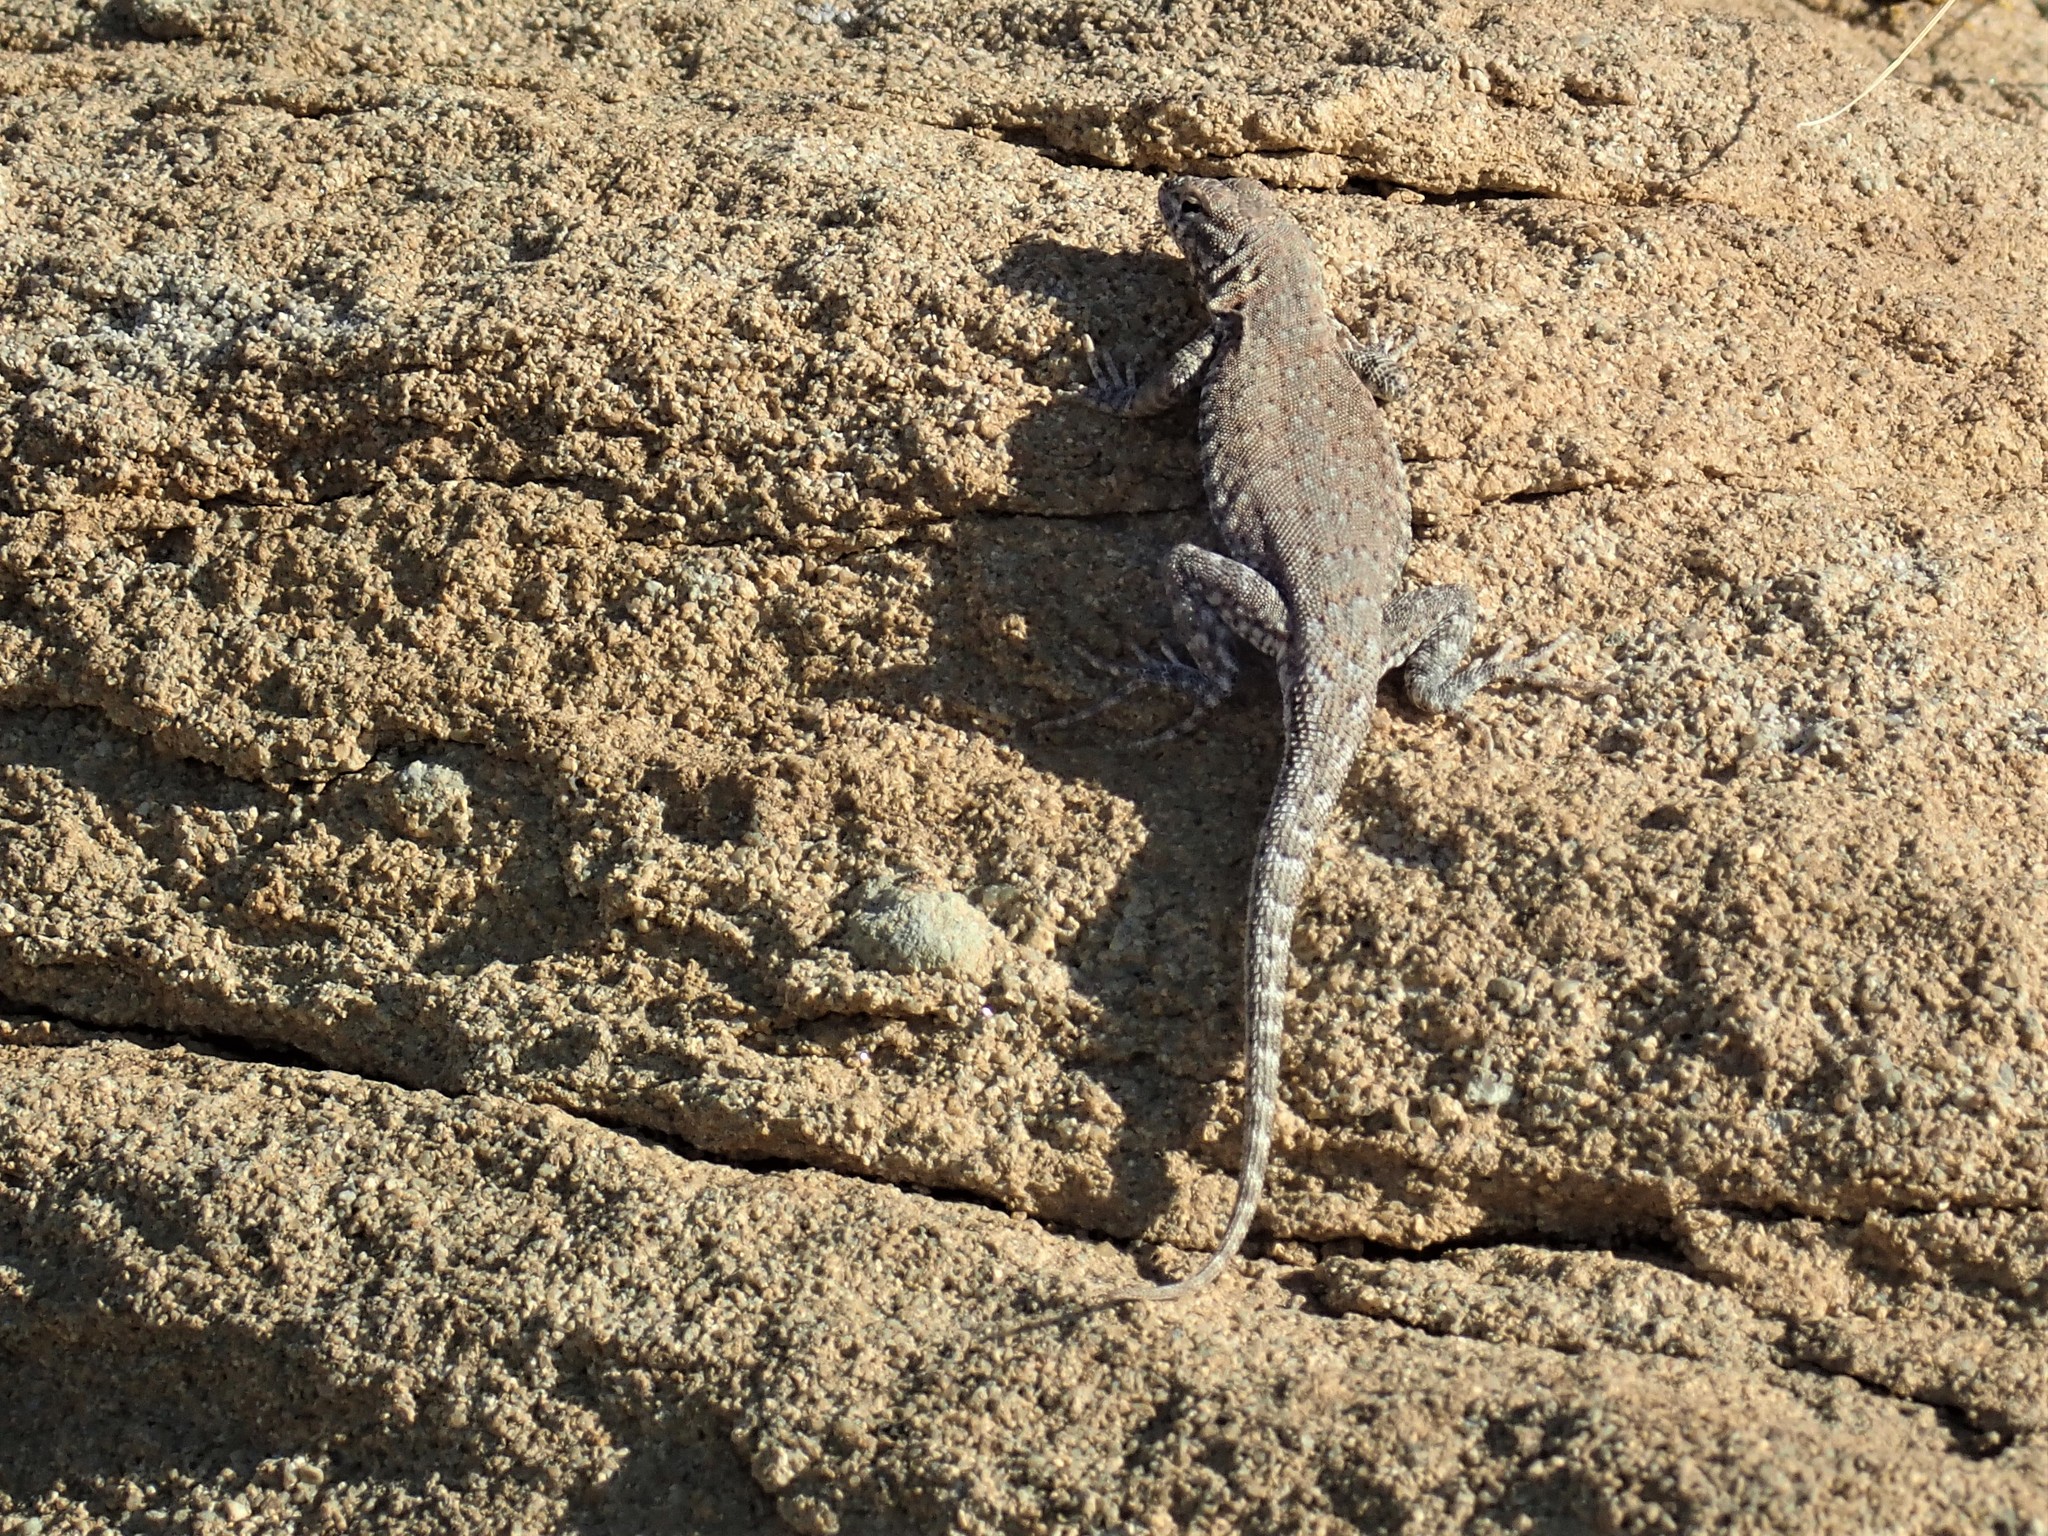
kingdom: Animalia
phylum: Chordata
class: Squamata
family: Phrynosomatidae
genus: Uta
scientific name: Uta stansburiana
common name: Side-blotched lizard
